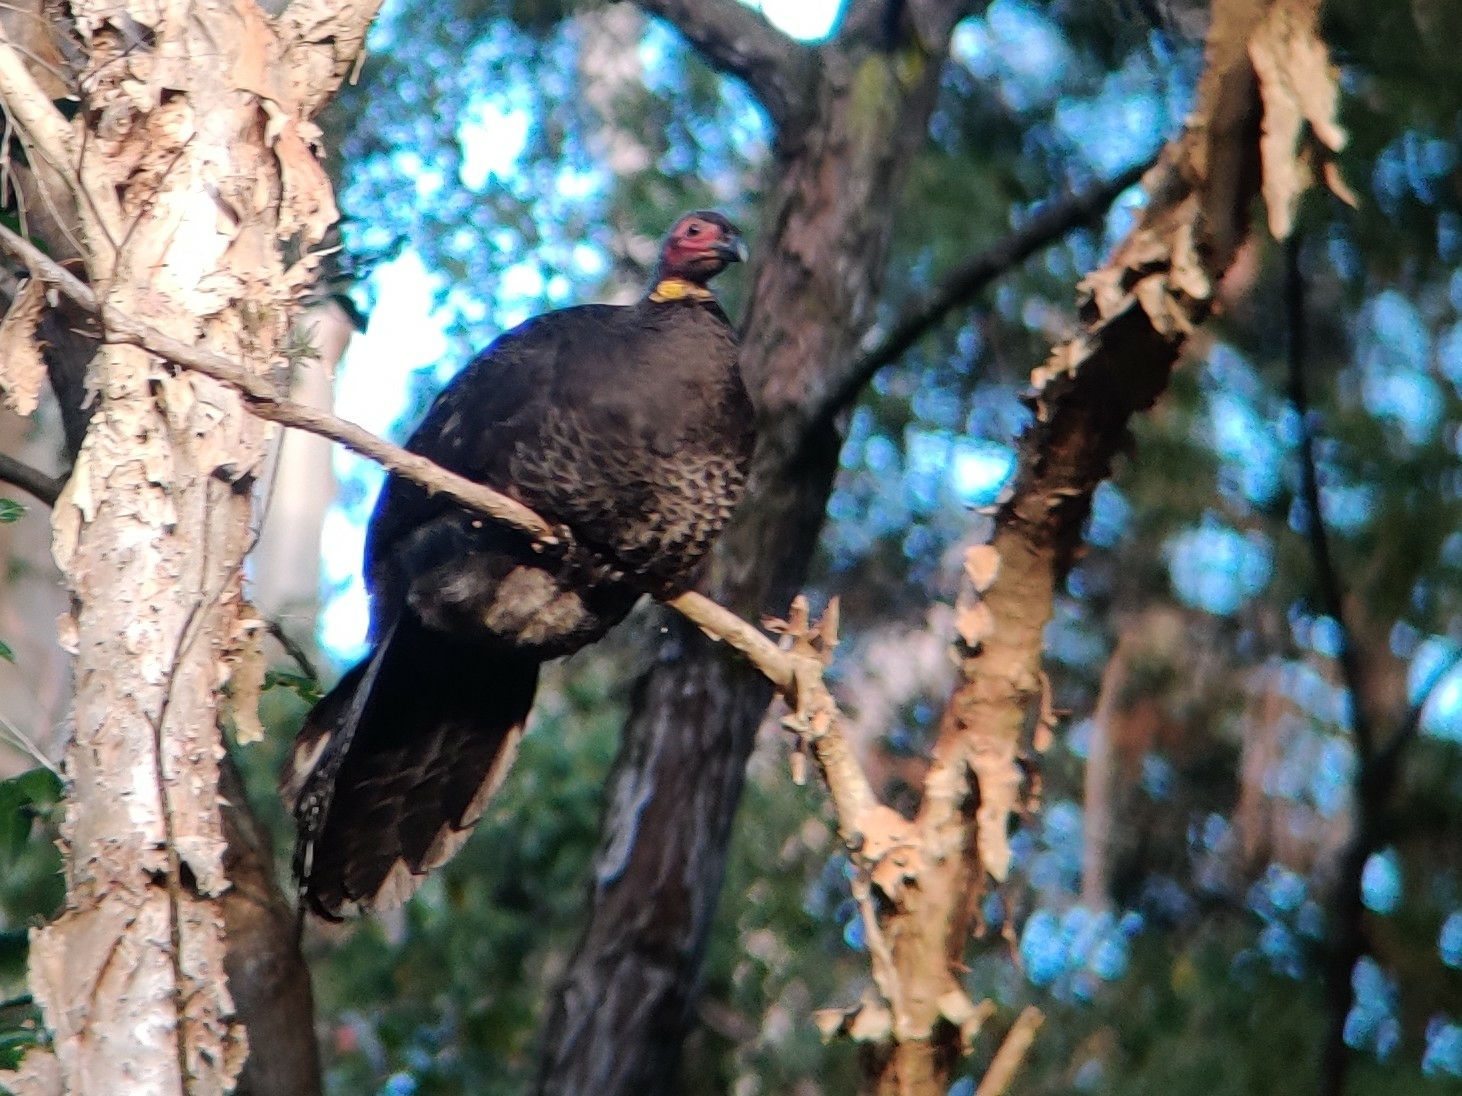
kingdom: Animalia
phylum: Chordata
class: Aves
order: Galliformes
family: Megapodiidae
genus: Alectura
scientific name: Alectura lathami
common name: Australian brushturkey
